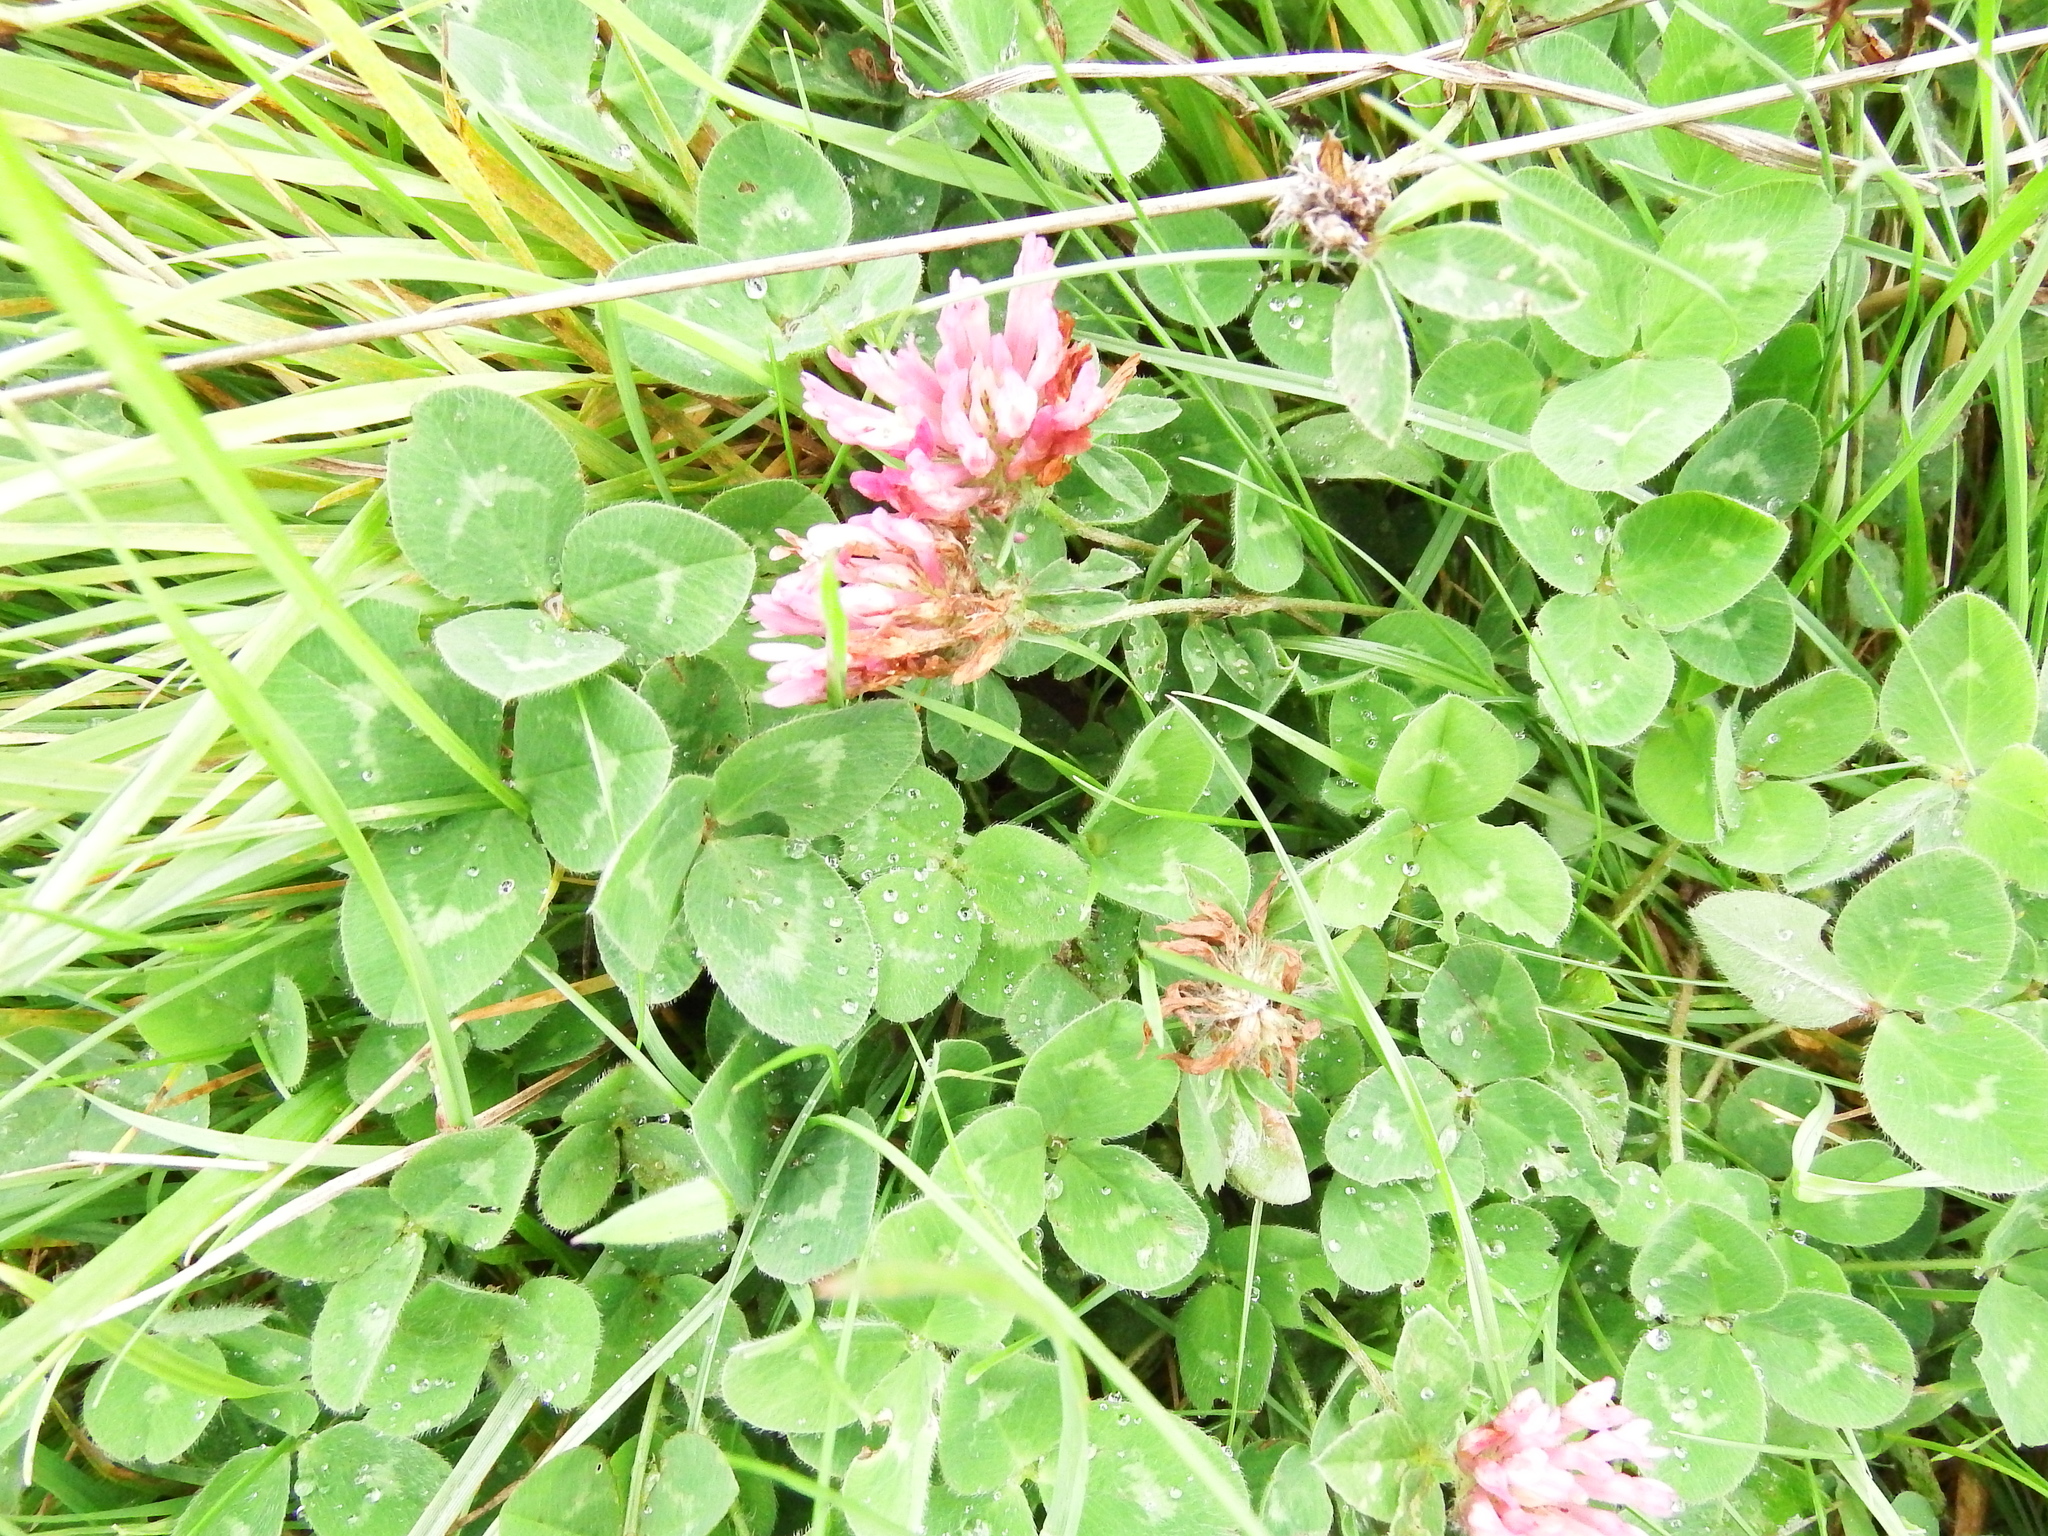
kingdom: Plantae
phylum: Tracheophyta
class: Magnoliopsida
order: Fabales
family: Fabaceae
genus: Trifolium
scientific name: Trifolium pratense
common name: Red clover
